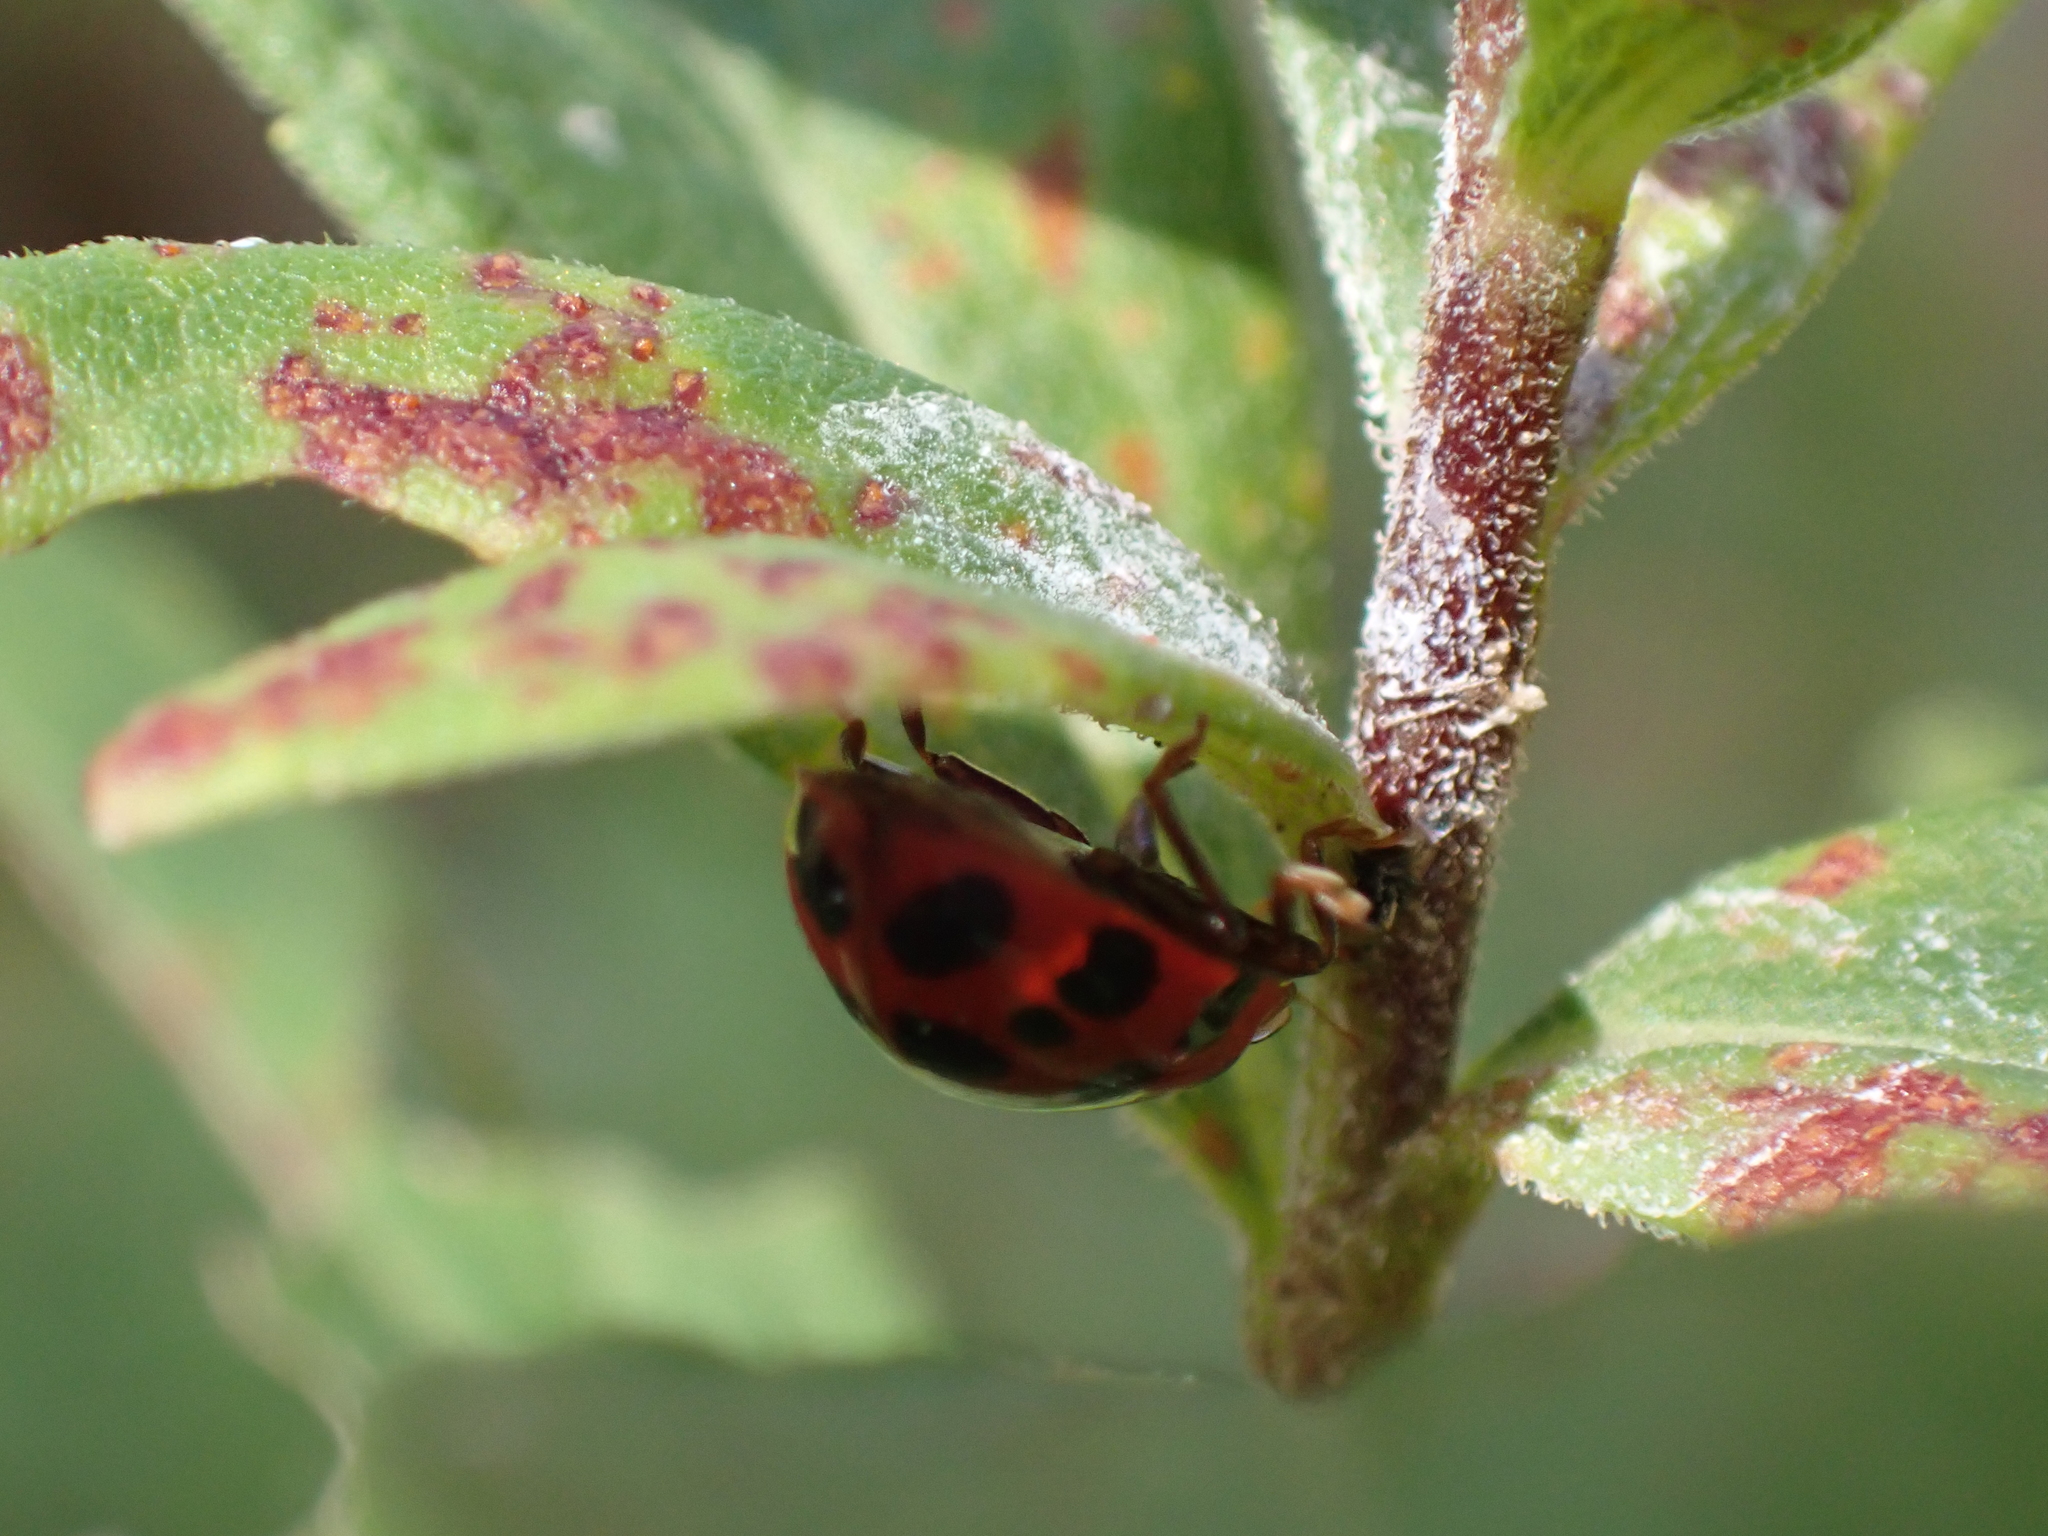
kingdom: Animalia
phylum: Arthropoda
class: Insecta
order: Coleoptera
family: Coccinellidae
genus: Harmonia
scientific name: Harmonia axyridis
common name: Harlequin ladybird
